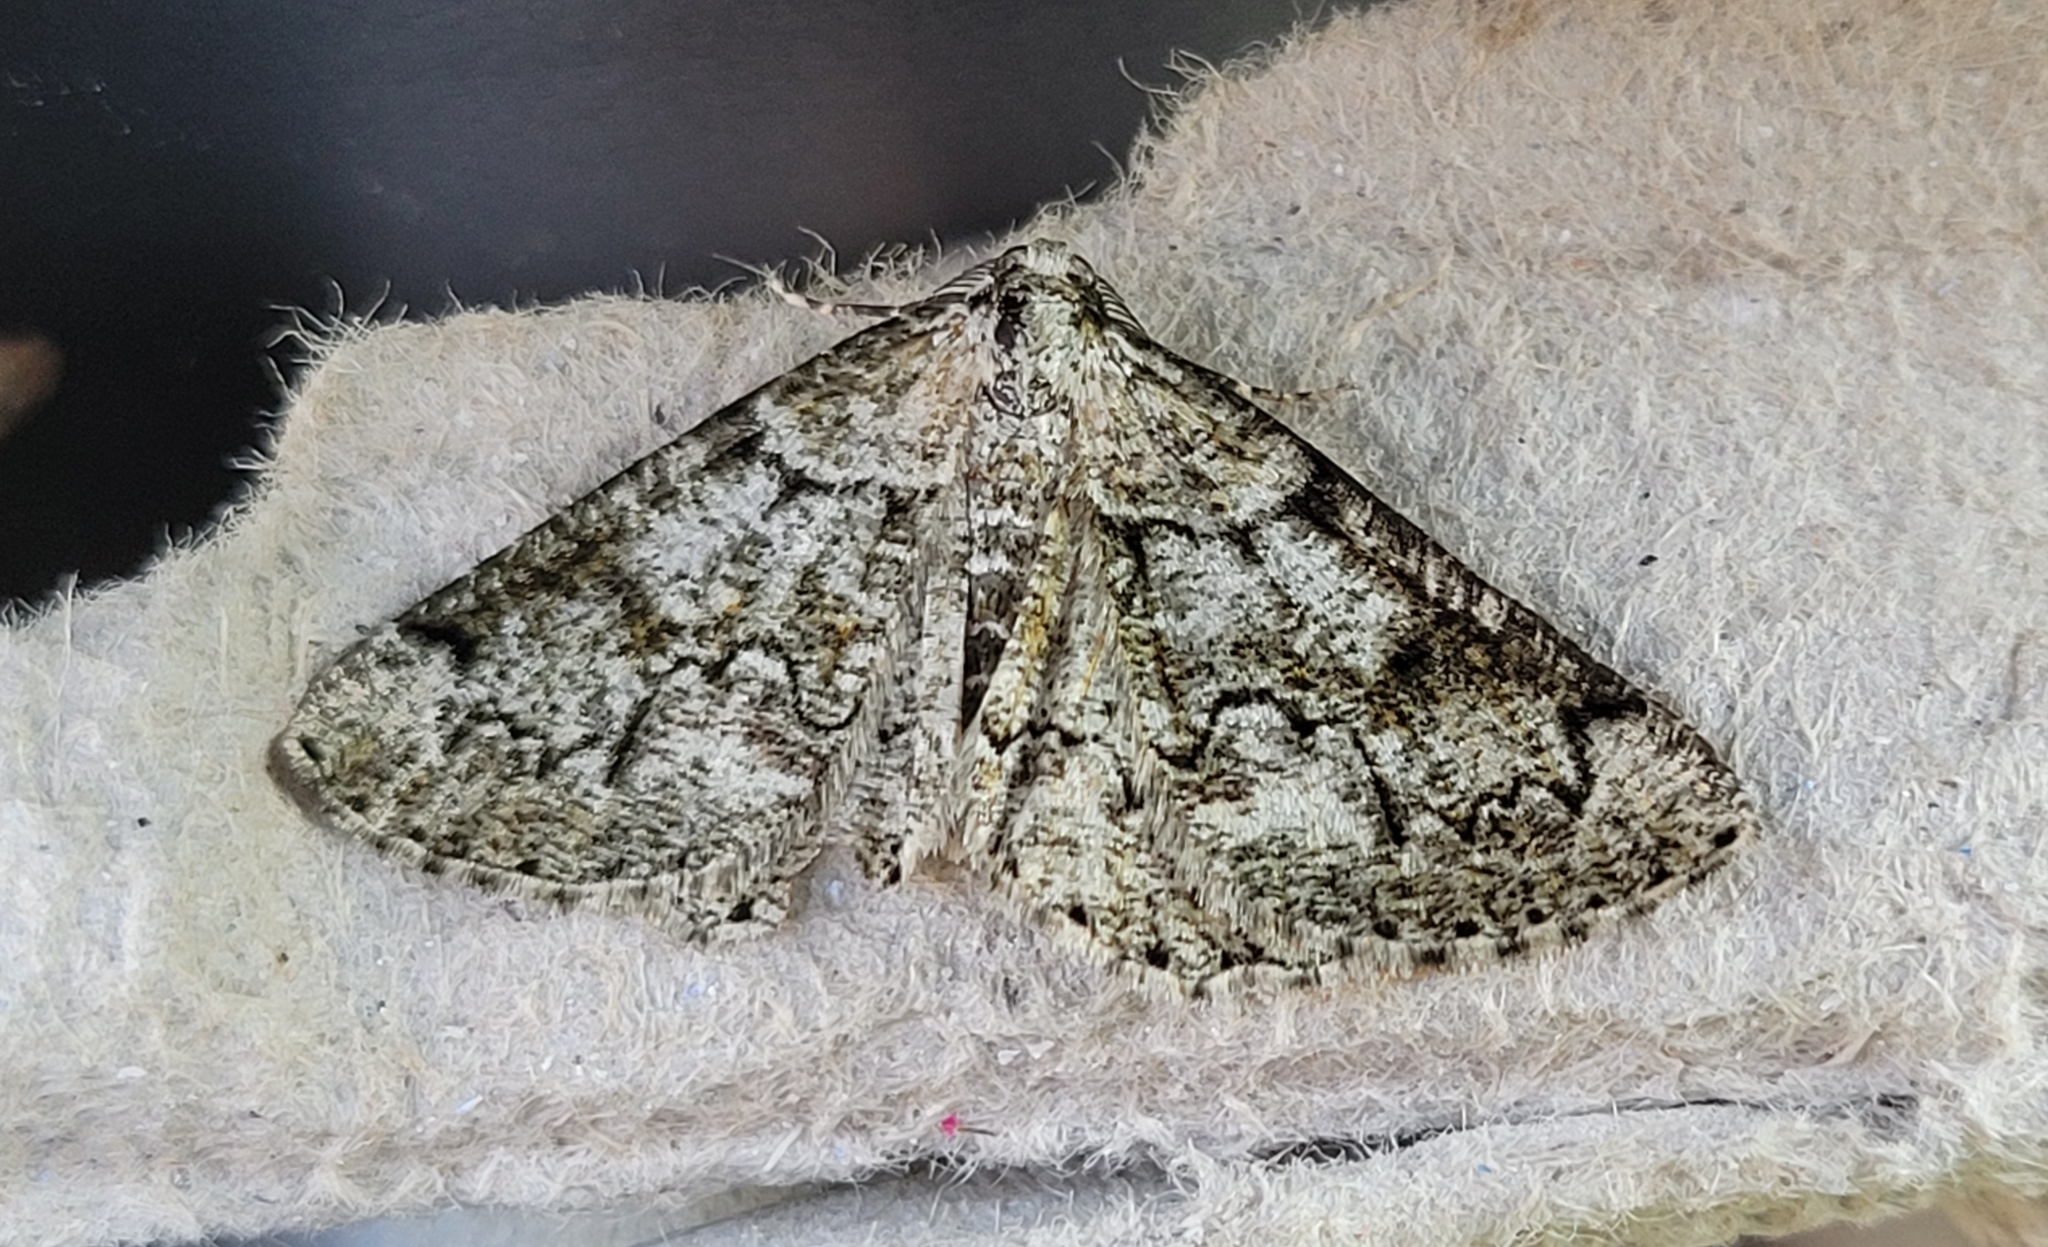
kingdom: Animalia
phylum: Arthropoda
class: Insecta
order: Lepidoptera
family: Geometridae
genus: Cleorodes
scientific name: Cleorodes lichenaria
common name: Brussels lace
